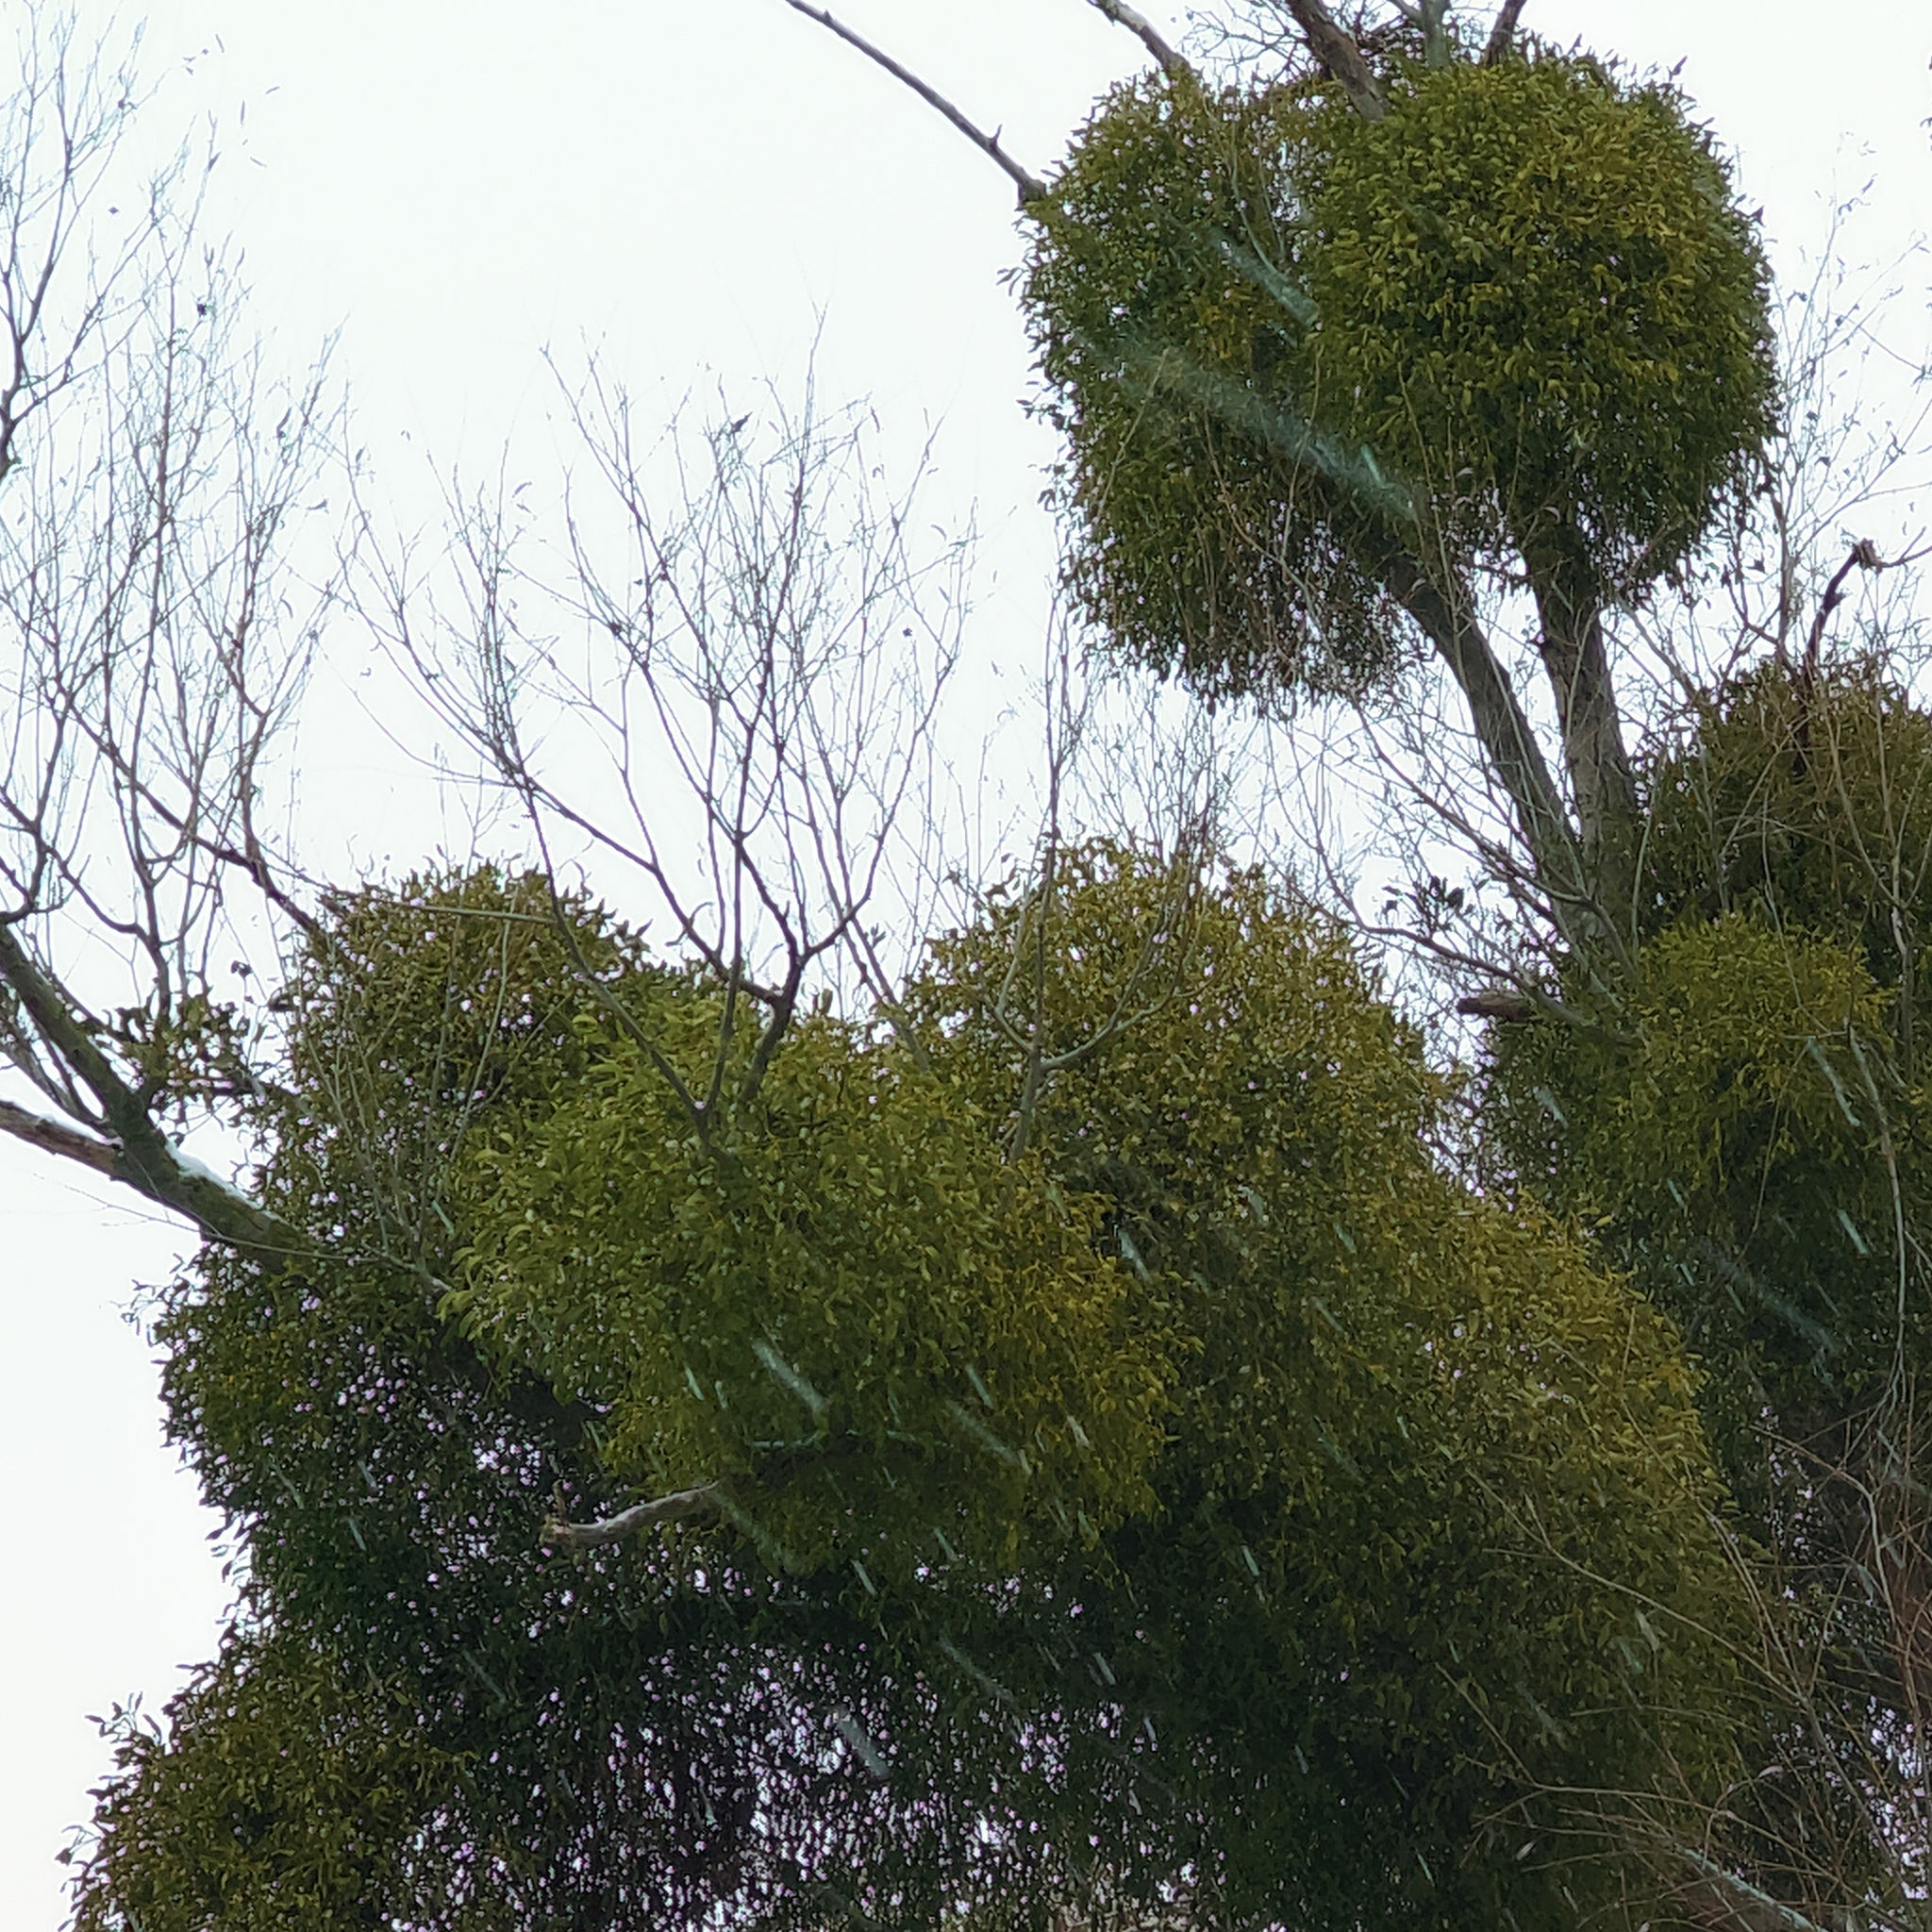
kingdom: Plantae
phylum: Tracheophyta
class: Magnoliopsida
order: Santalales
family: Viscaceae
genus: Viscum
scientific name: Viscum album
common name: Mistletoe
